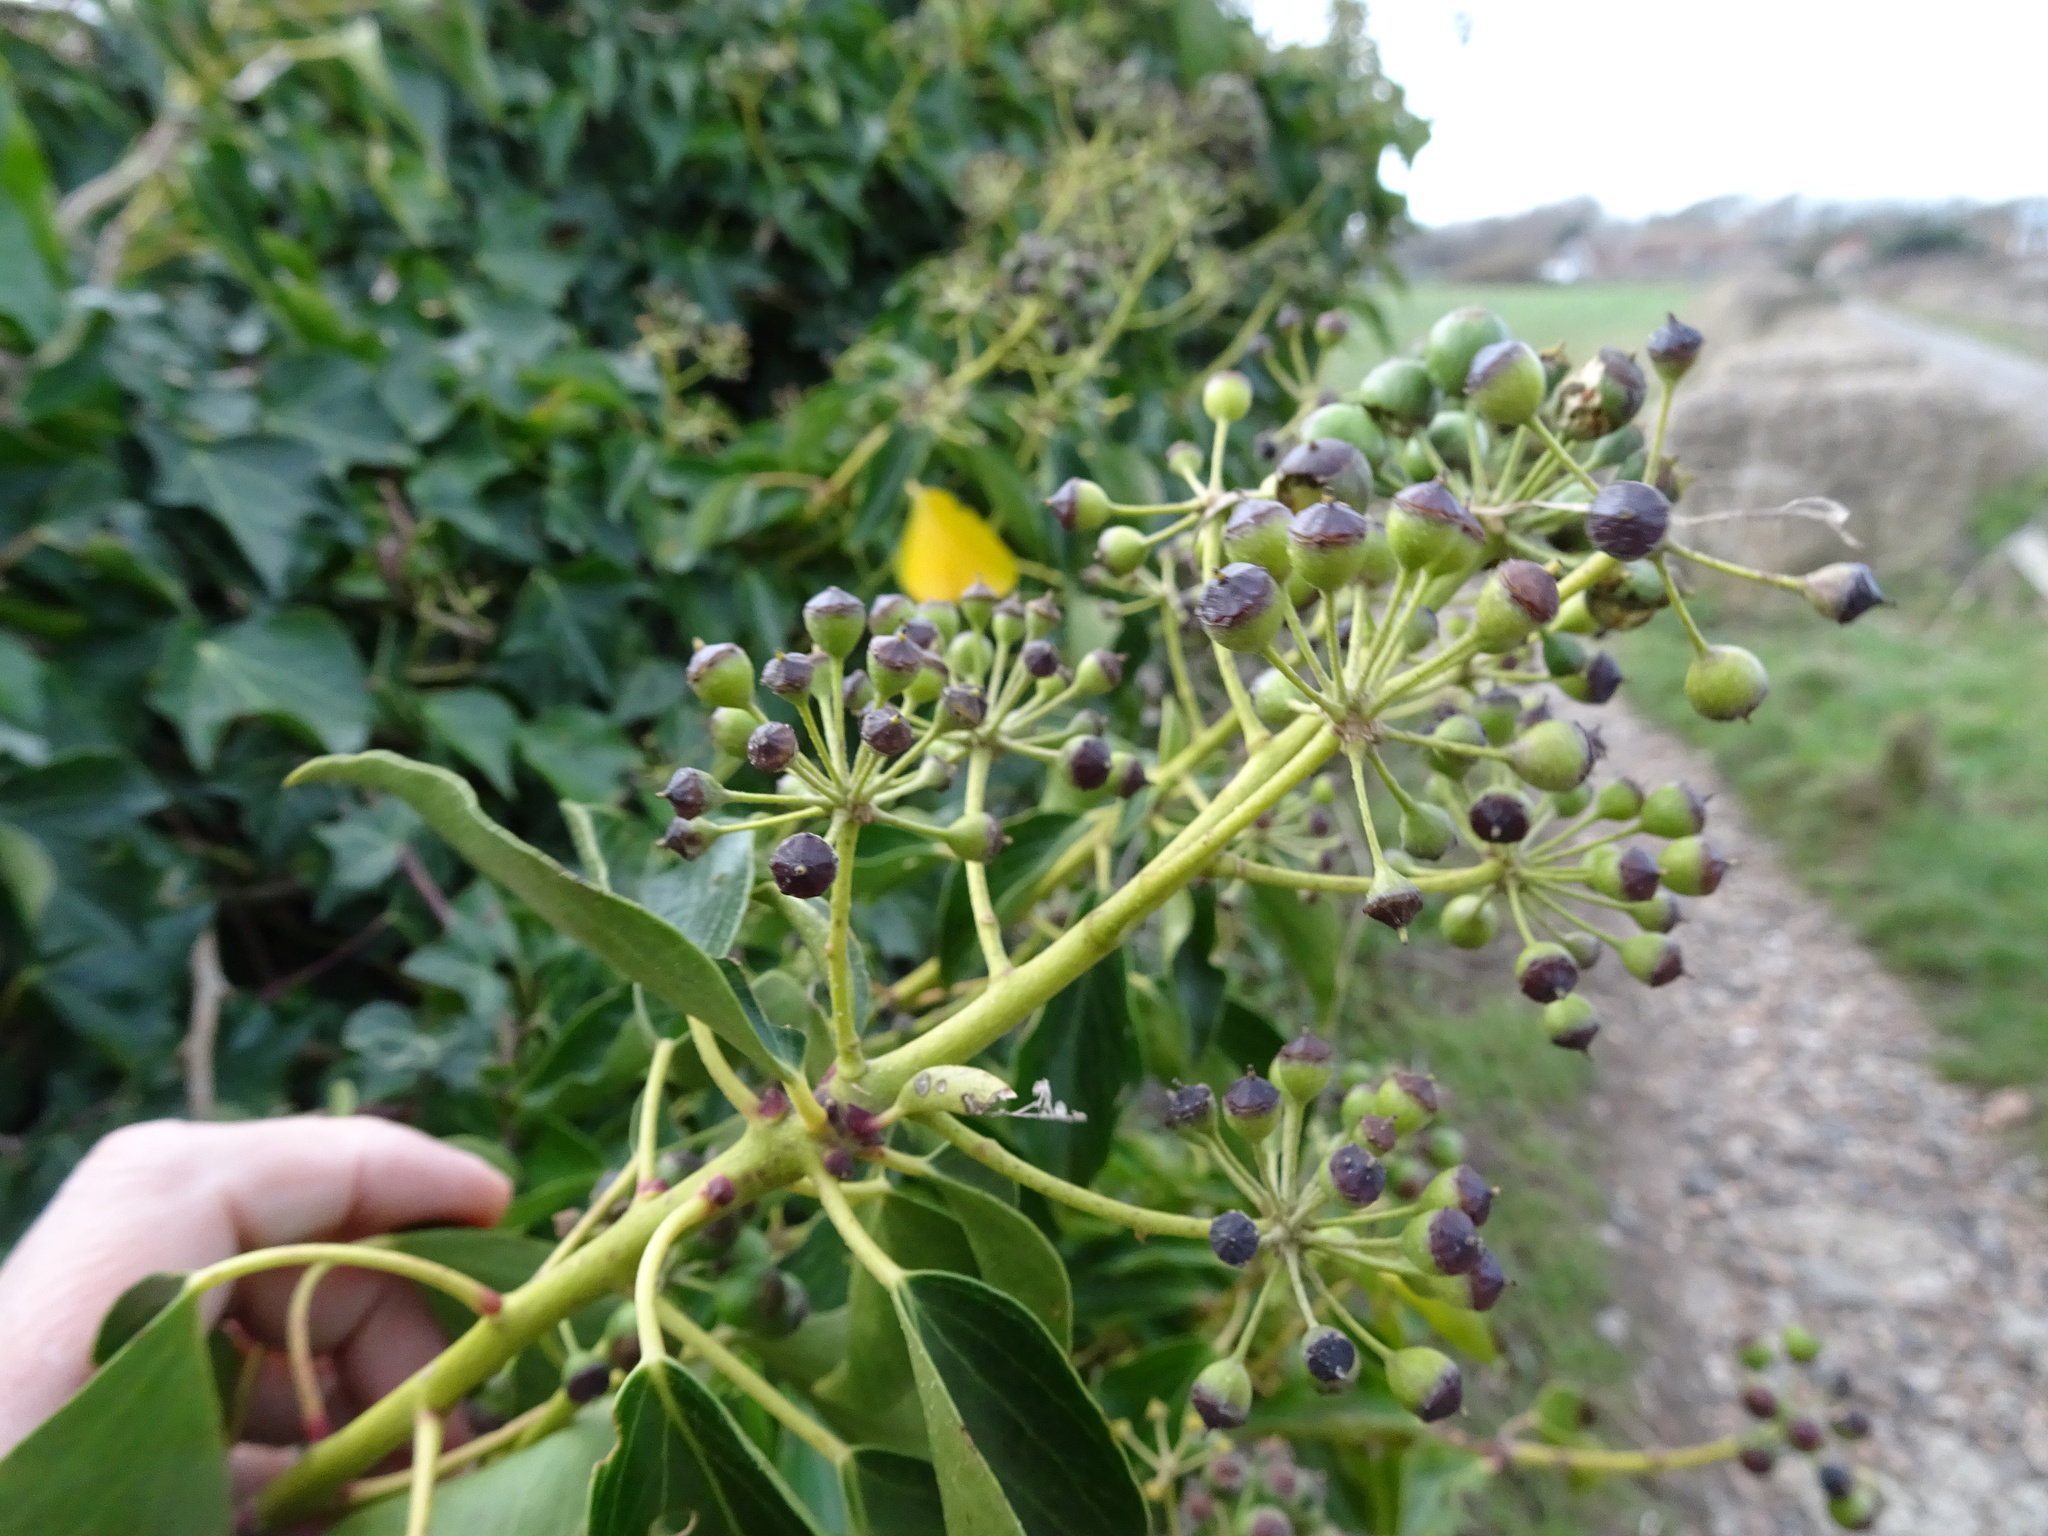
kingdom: Plantae
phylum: Tracheophyta
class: Magnoliopsida
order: Apiales
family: Araliaceae
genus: Hedera
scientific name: Hedera helix
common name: Ivy
